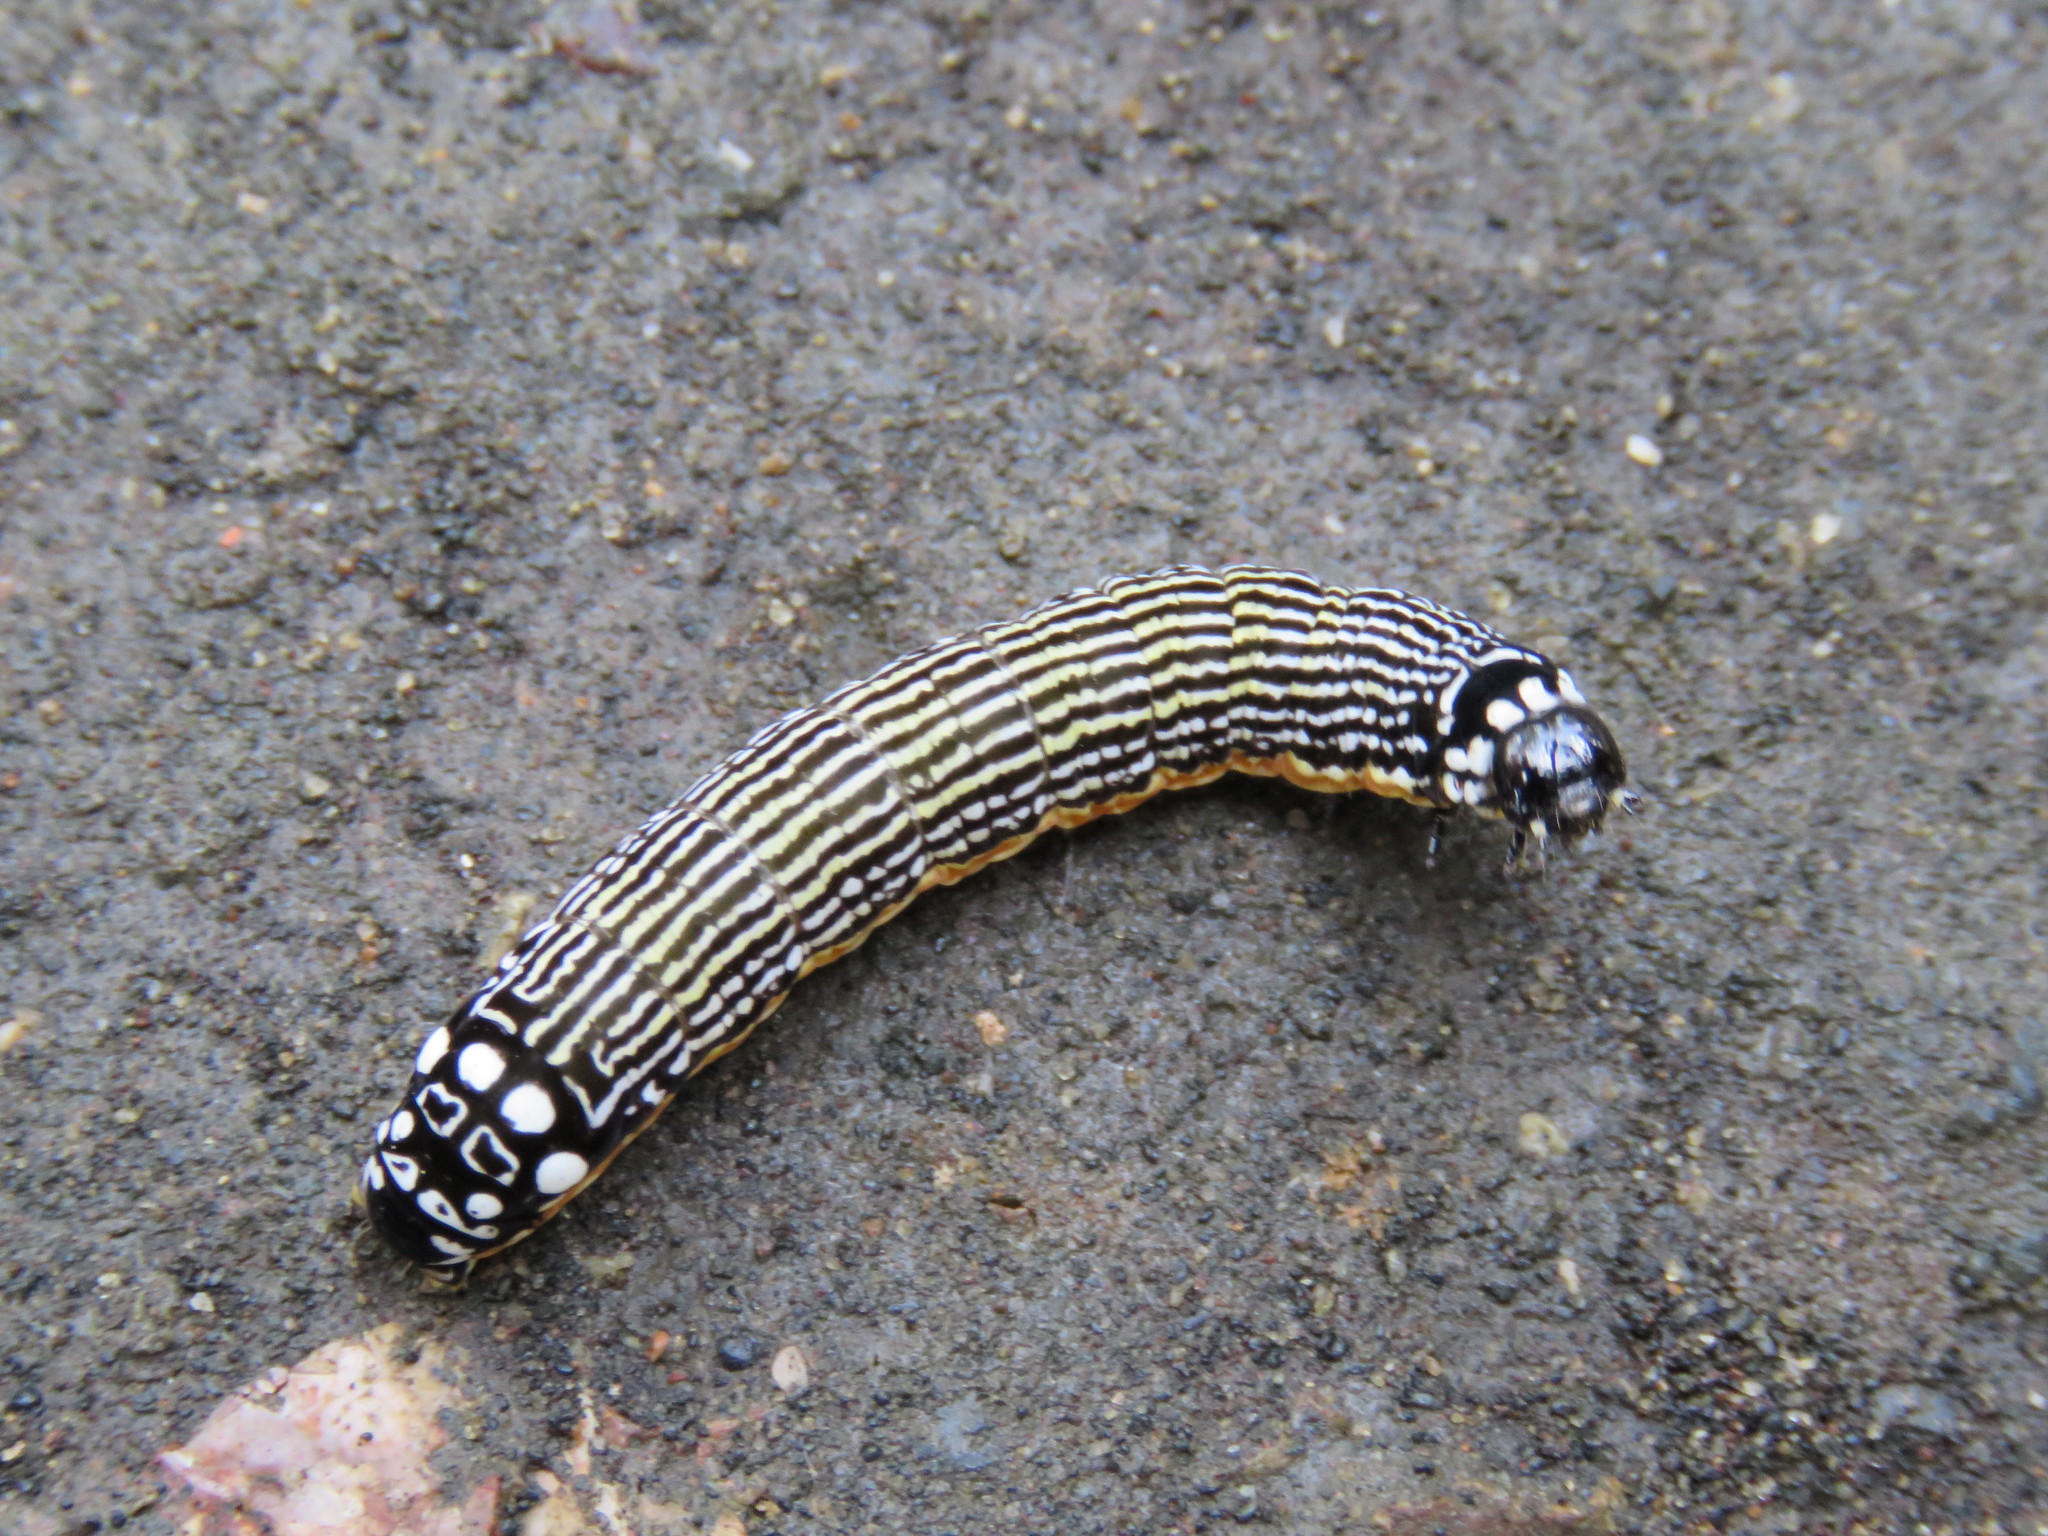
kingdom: Animalia
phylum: Arthropoda
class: Insecta
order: Lepidoptera
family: Noctuidae
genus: Phosphila
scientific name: Phosphila turbulenta
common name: Turbulent phosphila moth
